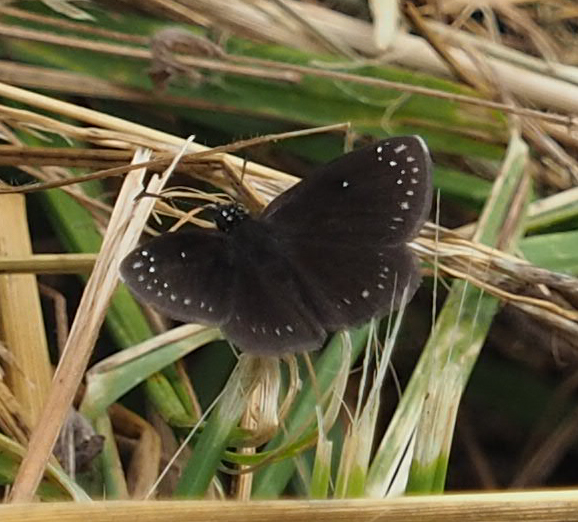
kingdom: Animalia
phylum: Arthropoda
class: Insecta
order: Lepidoptera
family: Hesperiidae
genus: Pholisora
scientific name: Pholisora catullus
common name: Common sootywing
